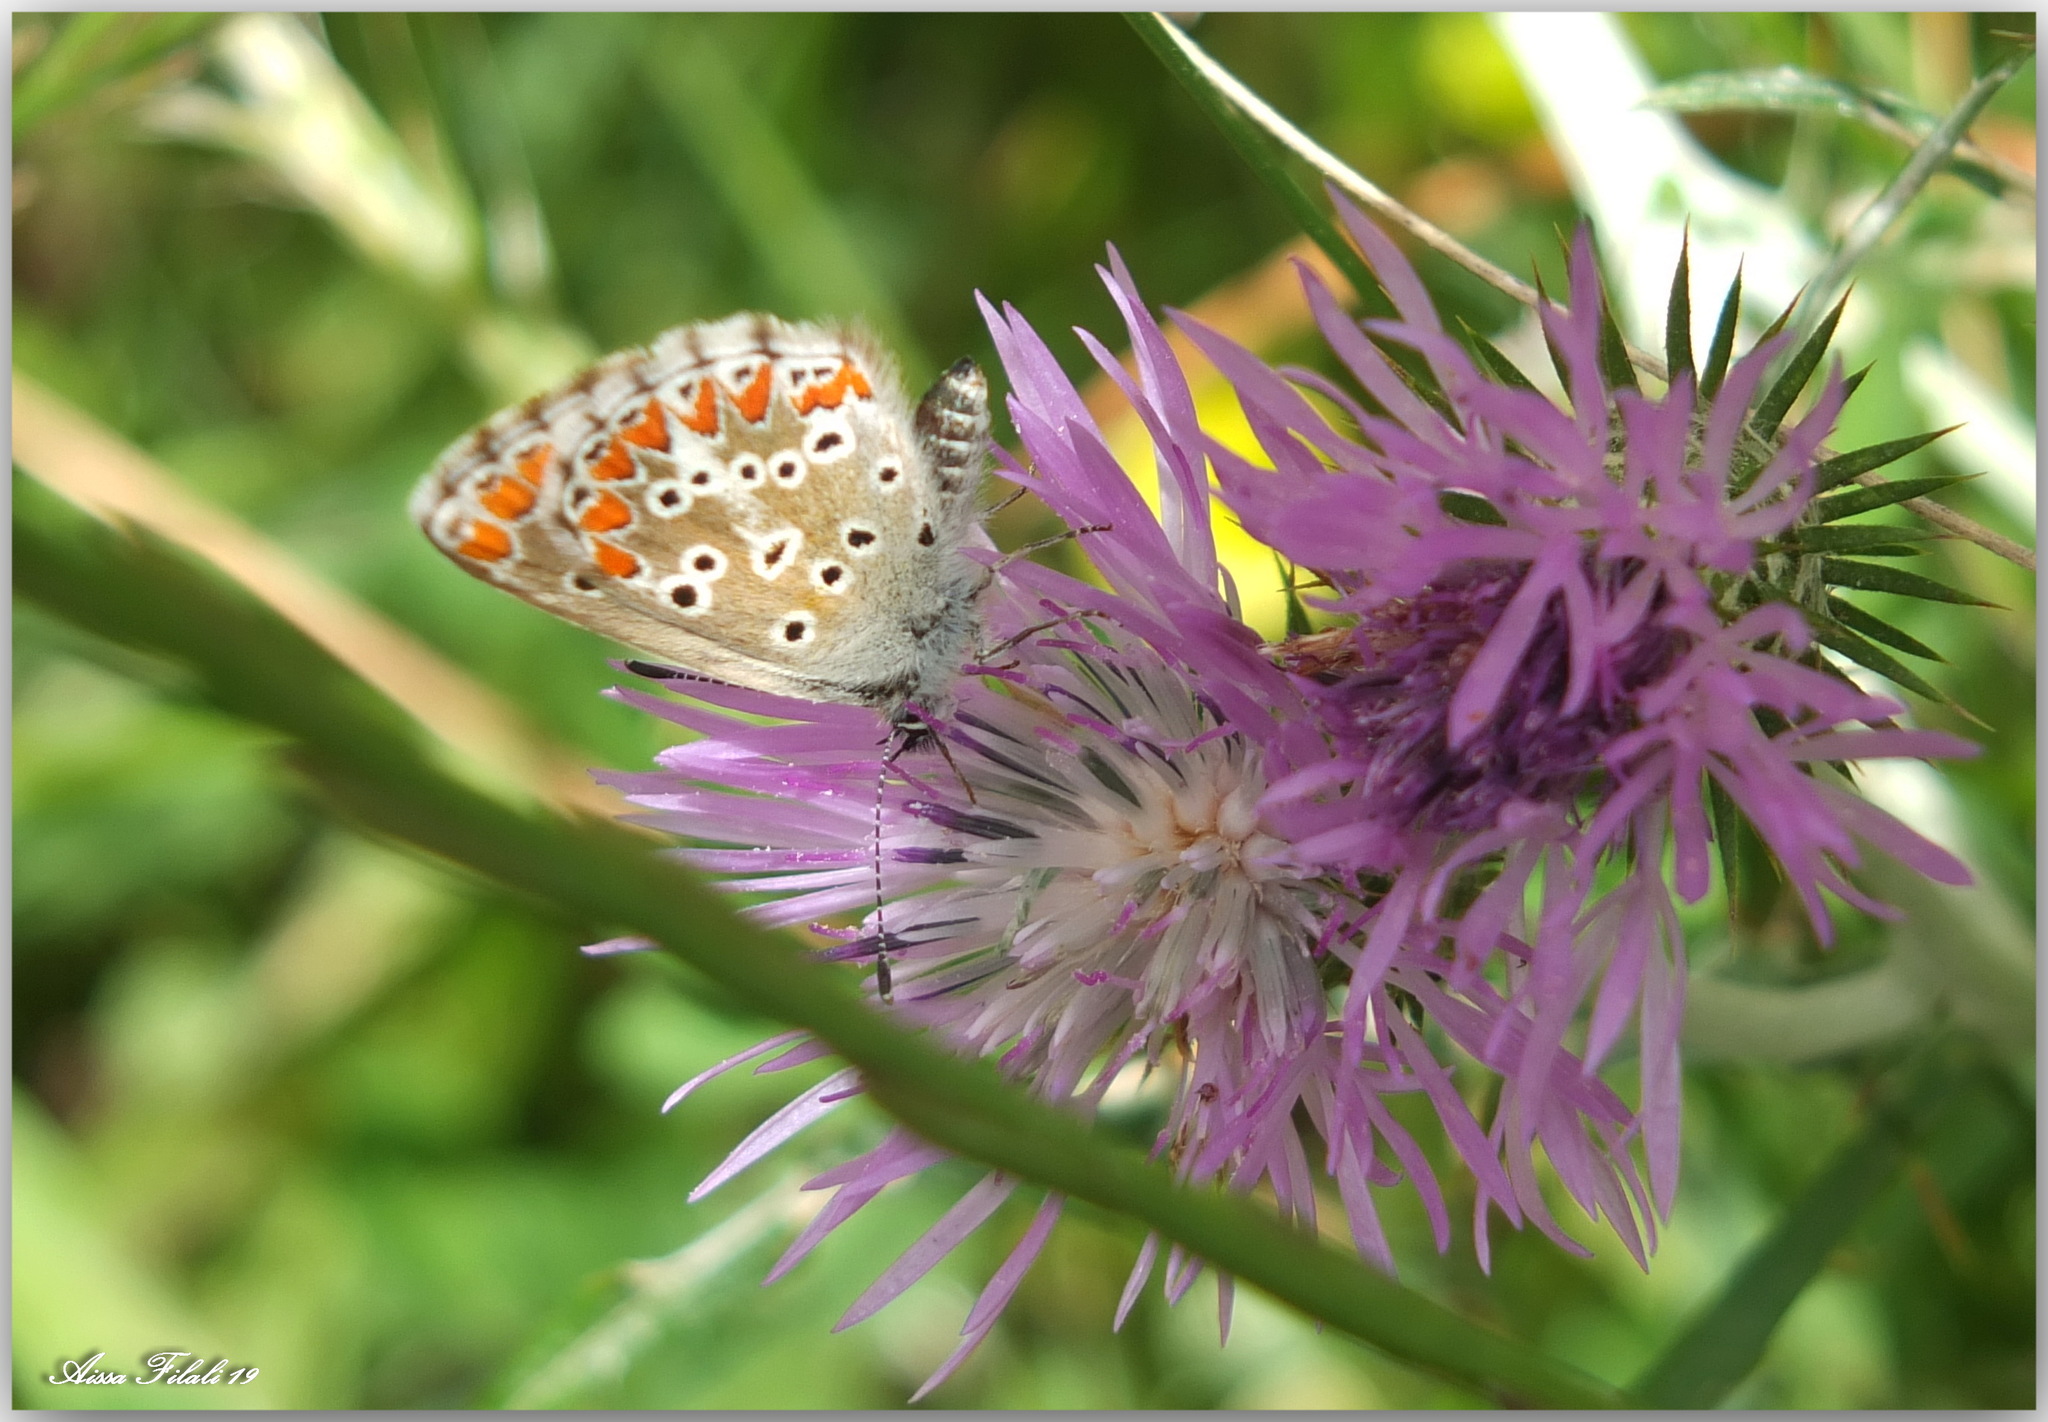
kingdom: Animalia
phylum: Arthropoda
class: Insecta
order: Lepidoptera
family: Lycaenidae
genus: Aricia
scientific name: Aricia cramera
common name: Eschscholtz´s brown  argus
